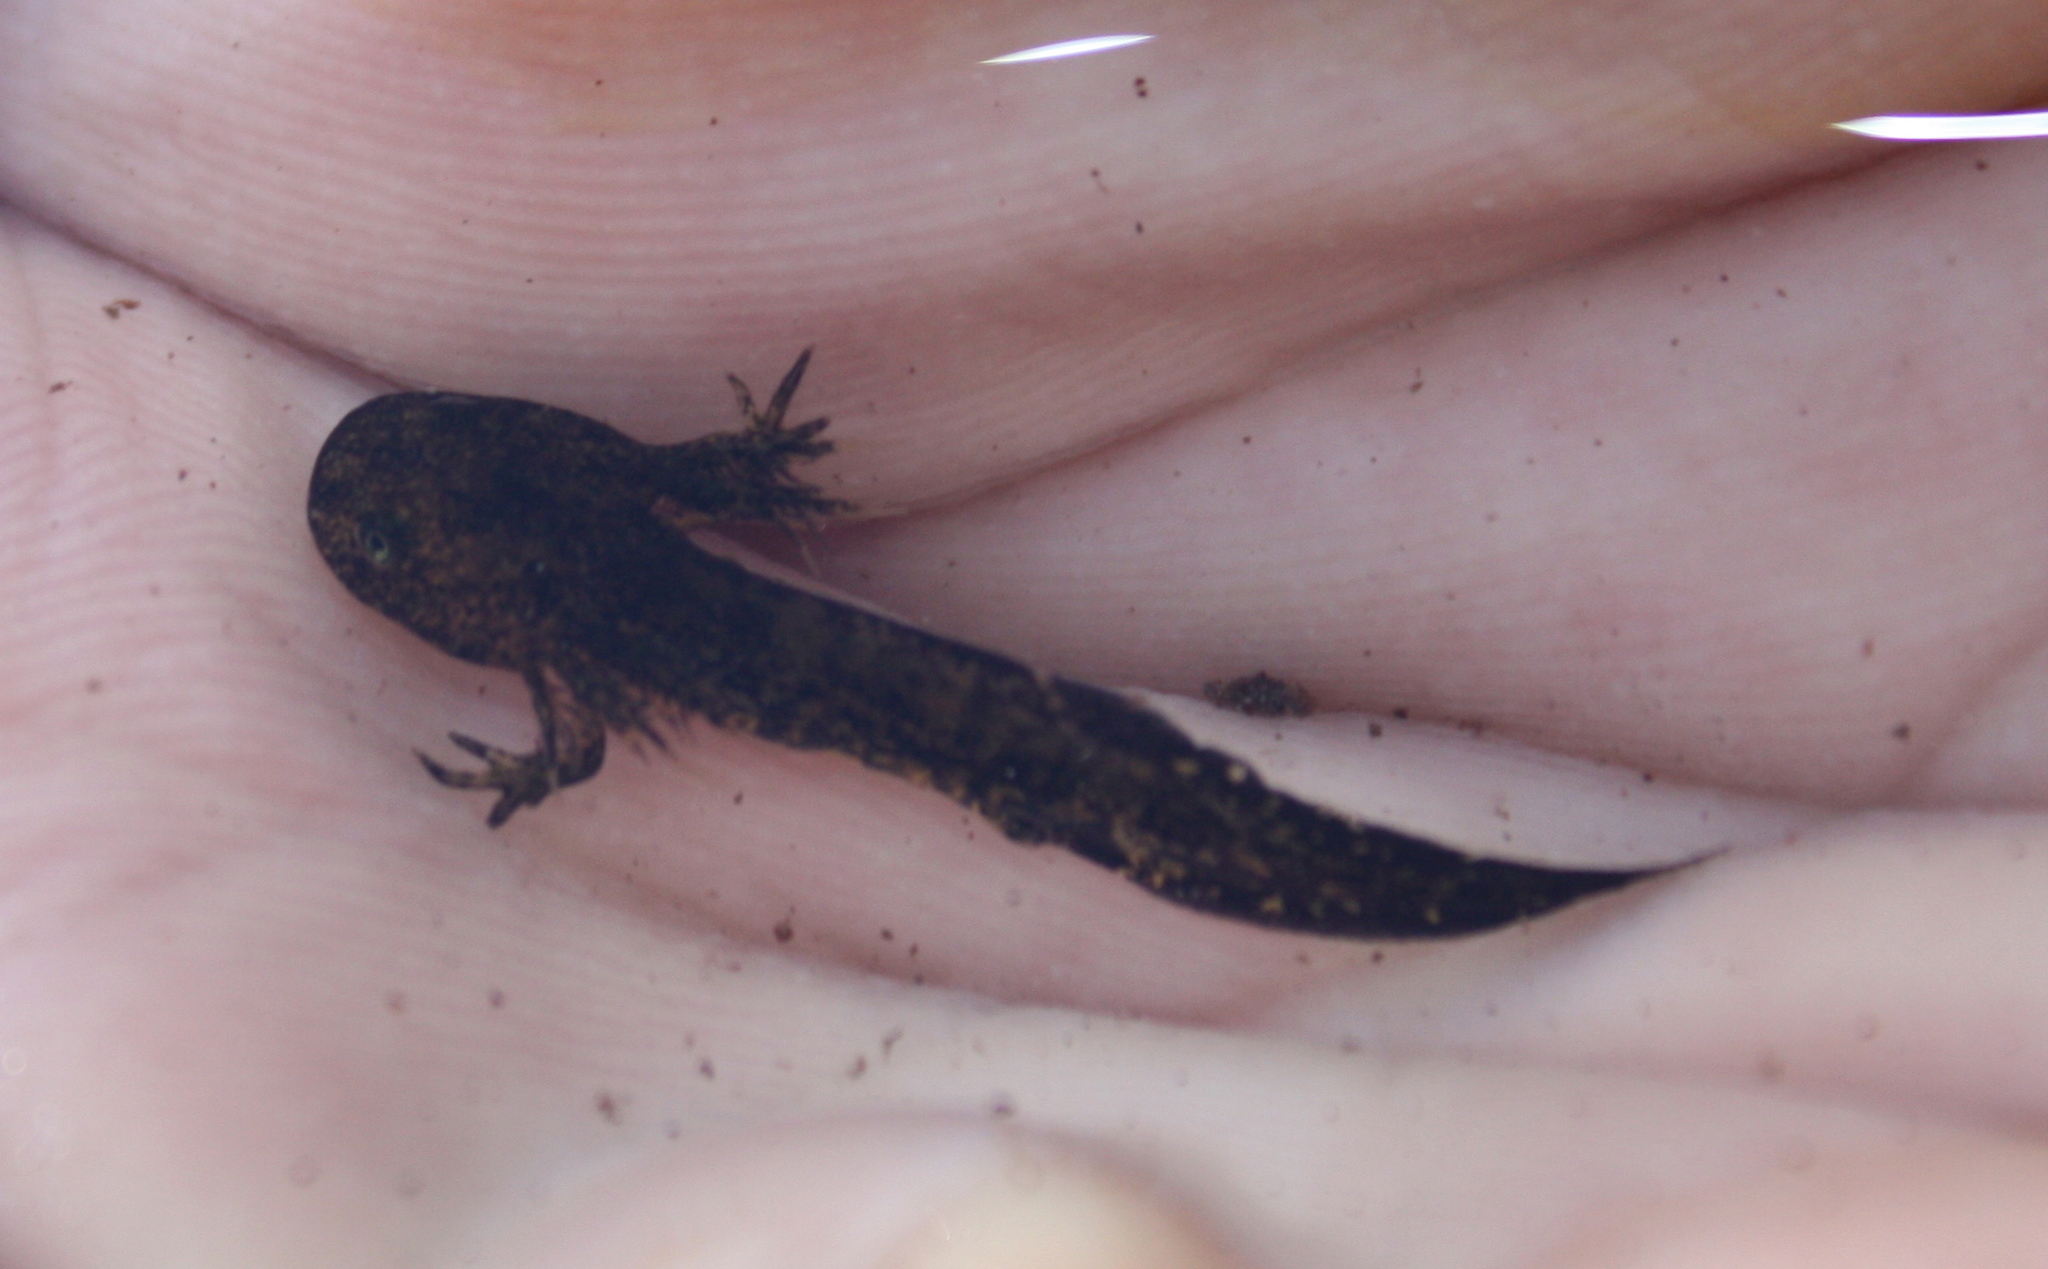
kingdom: Animalia
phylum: Chordata
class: Amphibia
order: Caudata
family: Ambystomatidae
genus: Ambystoma
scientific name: Ambystoma macrodactylum
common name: Long-toed salamander
